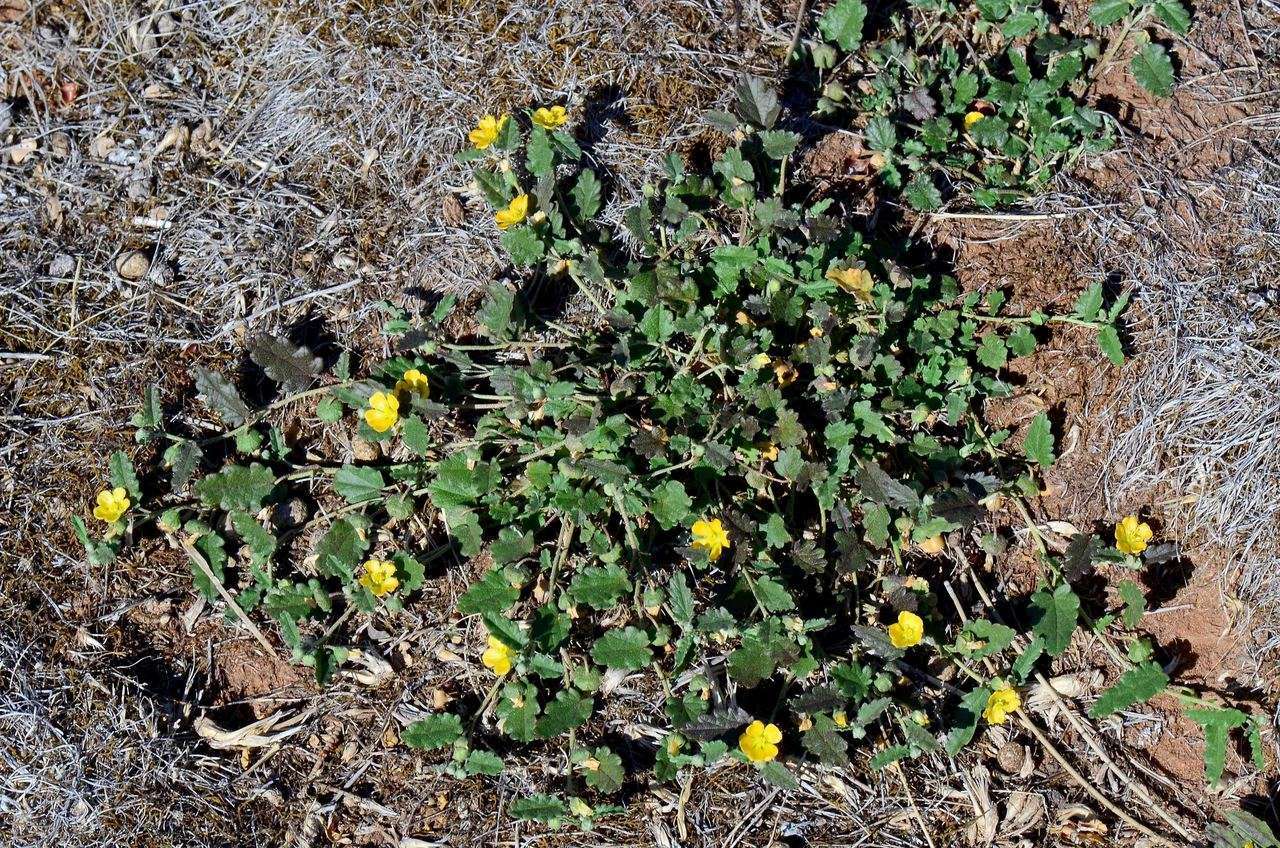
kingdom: Plantae
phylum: Tracheophyta
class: Magnoliopsida
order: Malvales
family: Malvaceae
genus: Sida
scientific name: Sida corrugata
